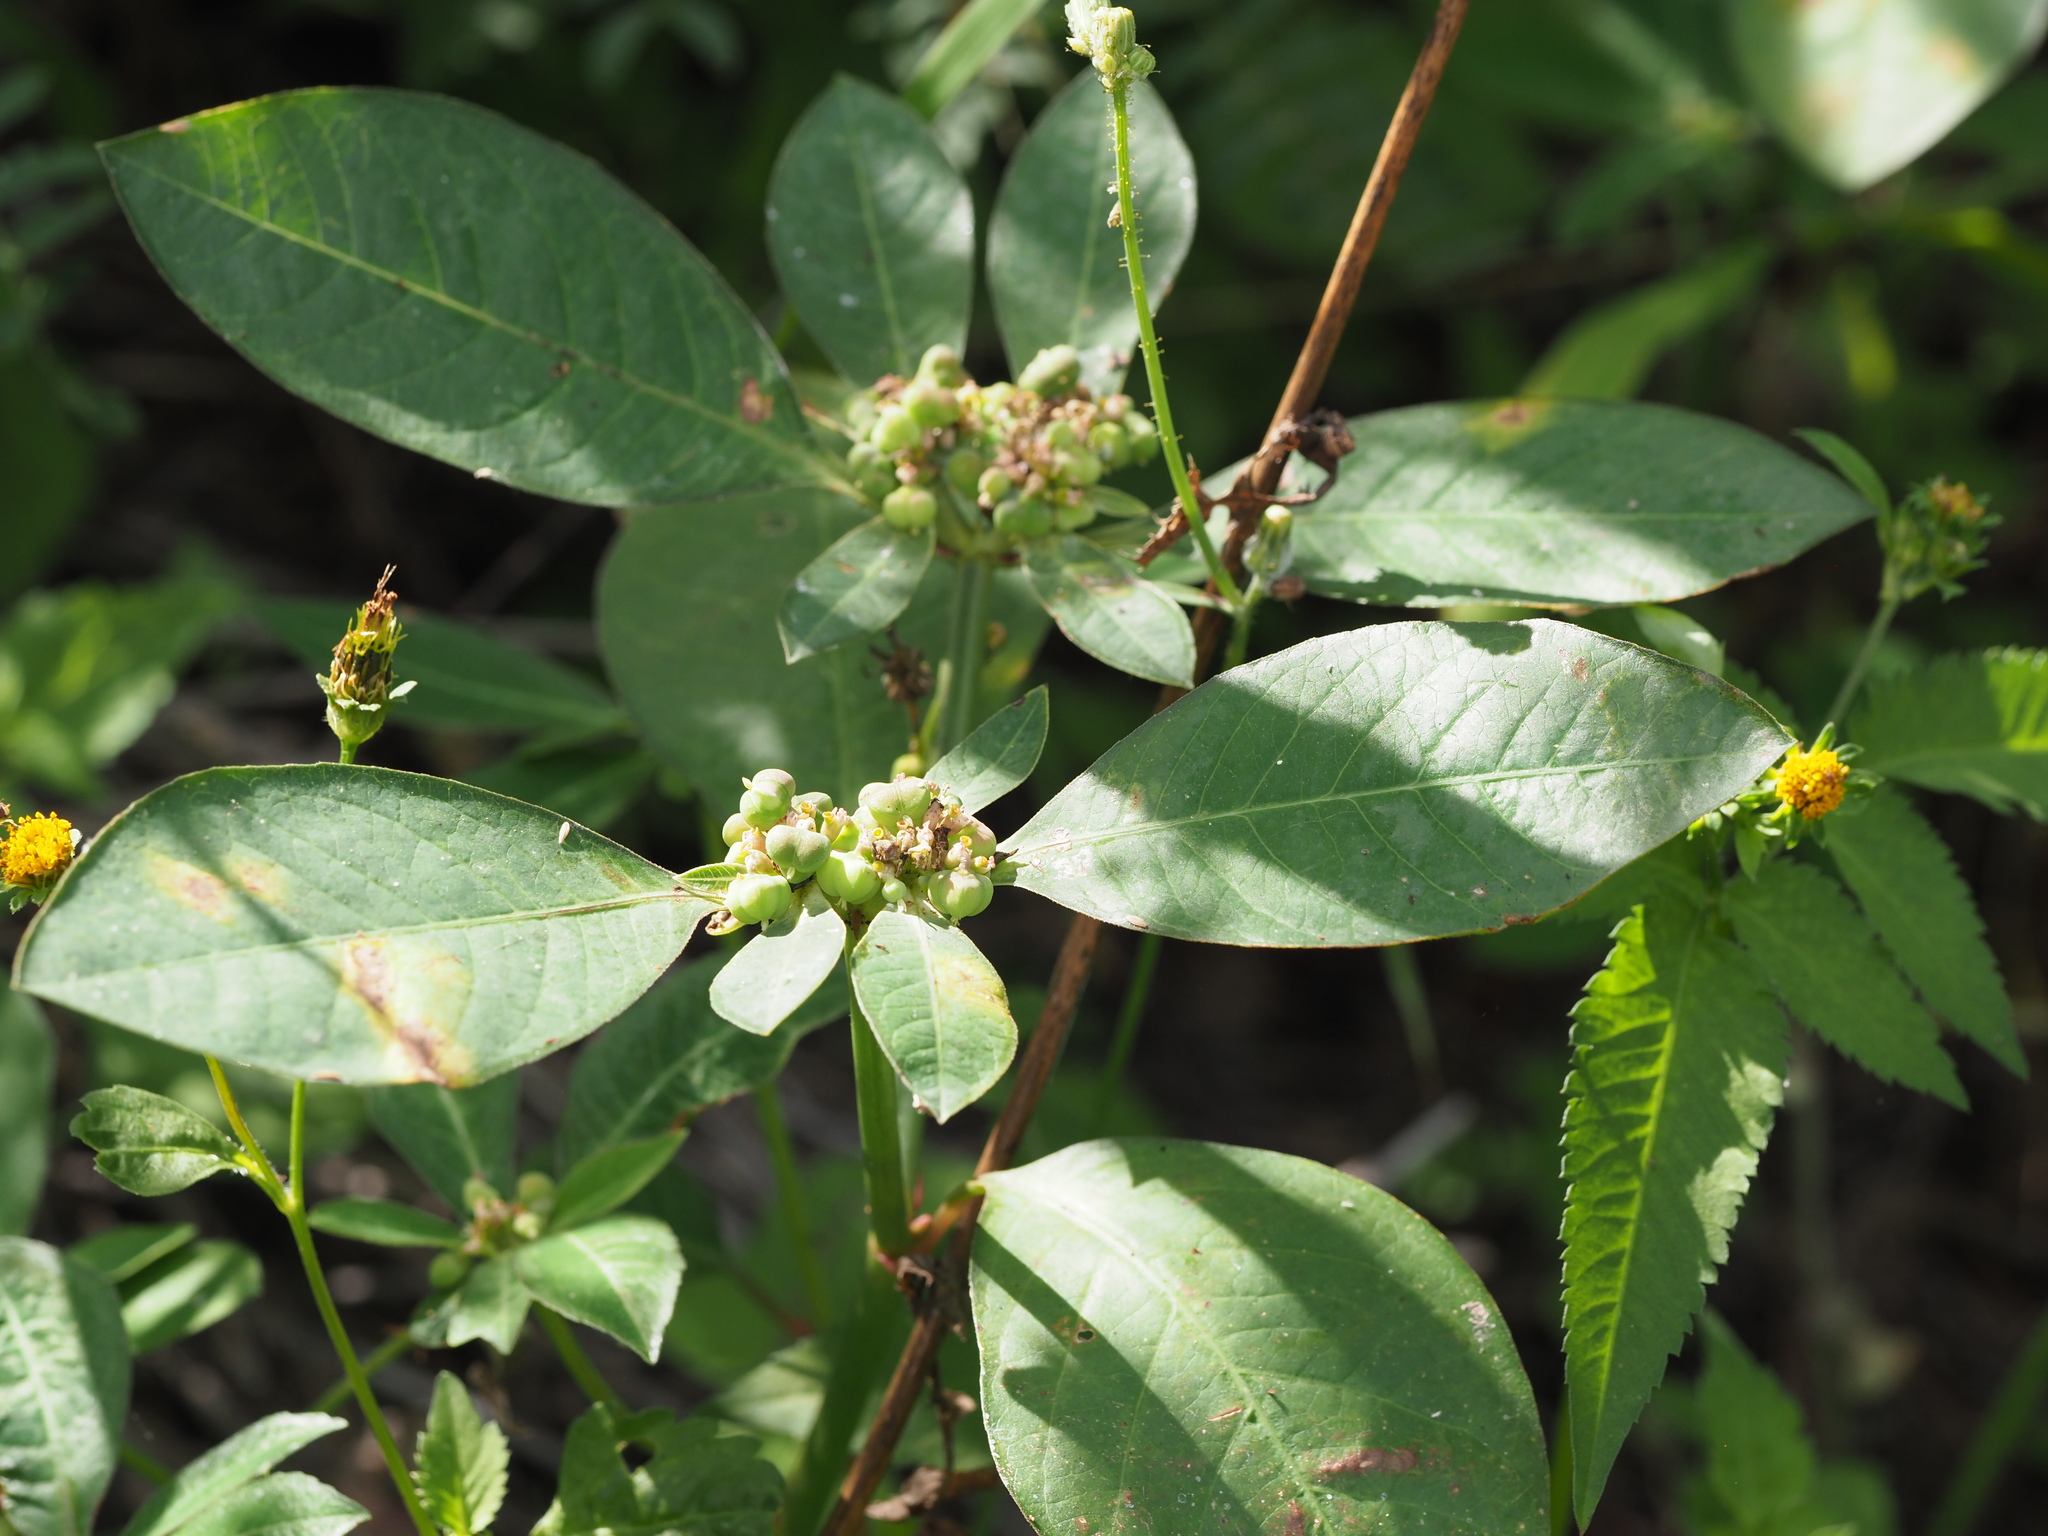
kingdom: Plantae
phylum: Tracheophyta
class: Magnoliopsida
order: Malpighiales
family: Euphorbiaceae
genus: Euphorbia
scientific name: Euphorbia heterophylla
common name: Mexican fireplant
